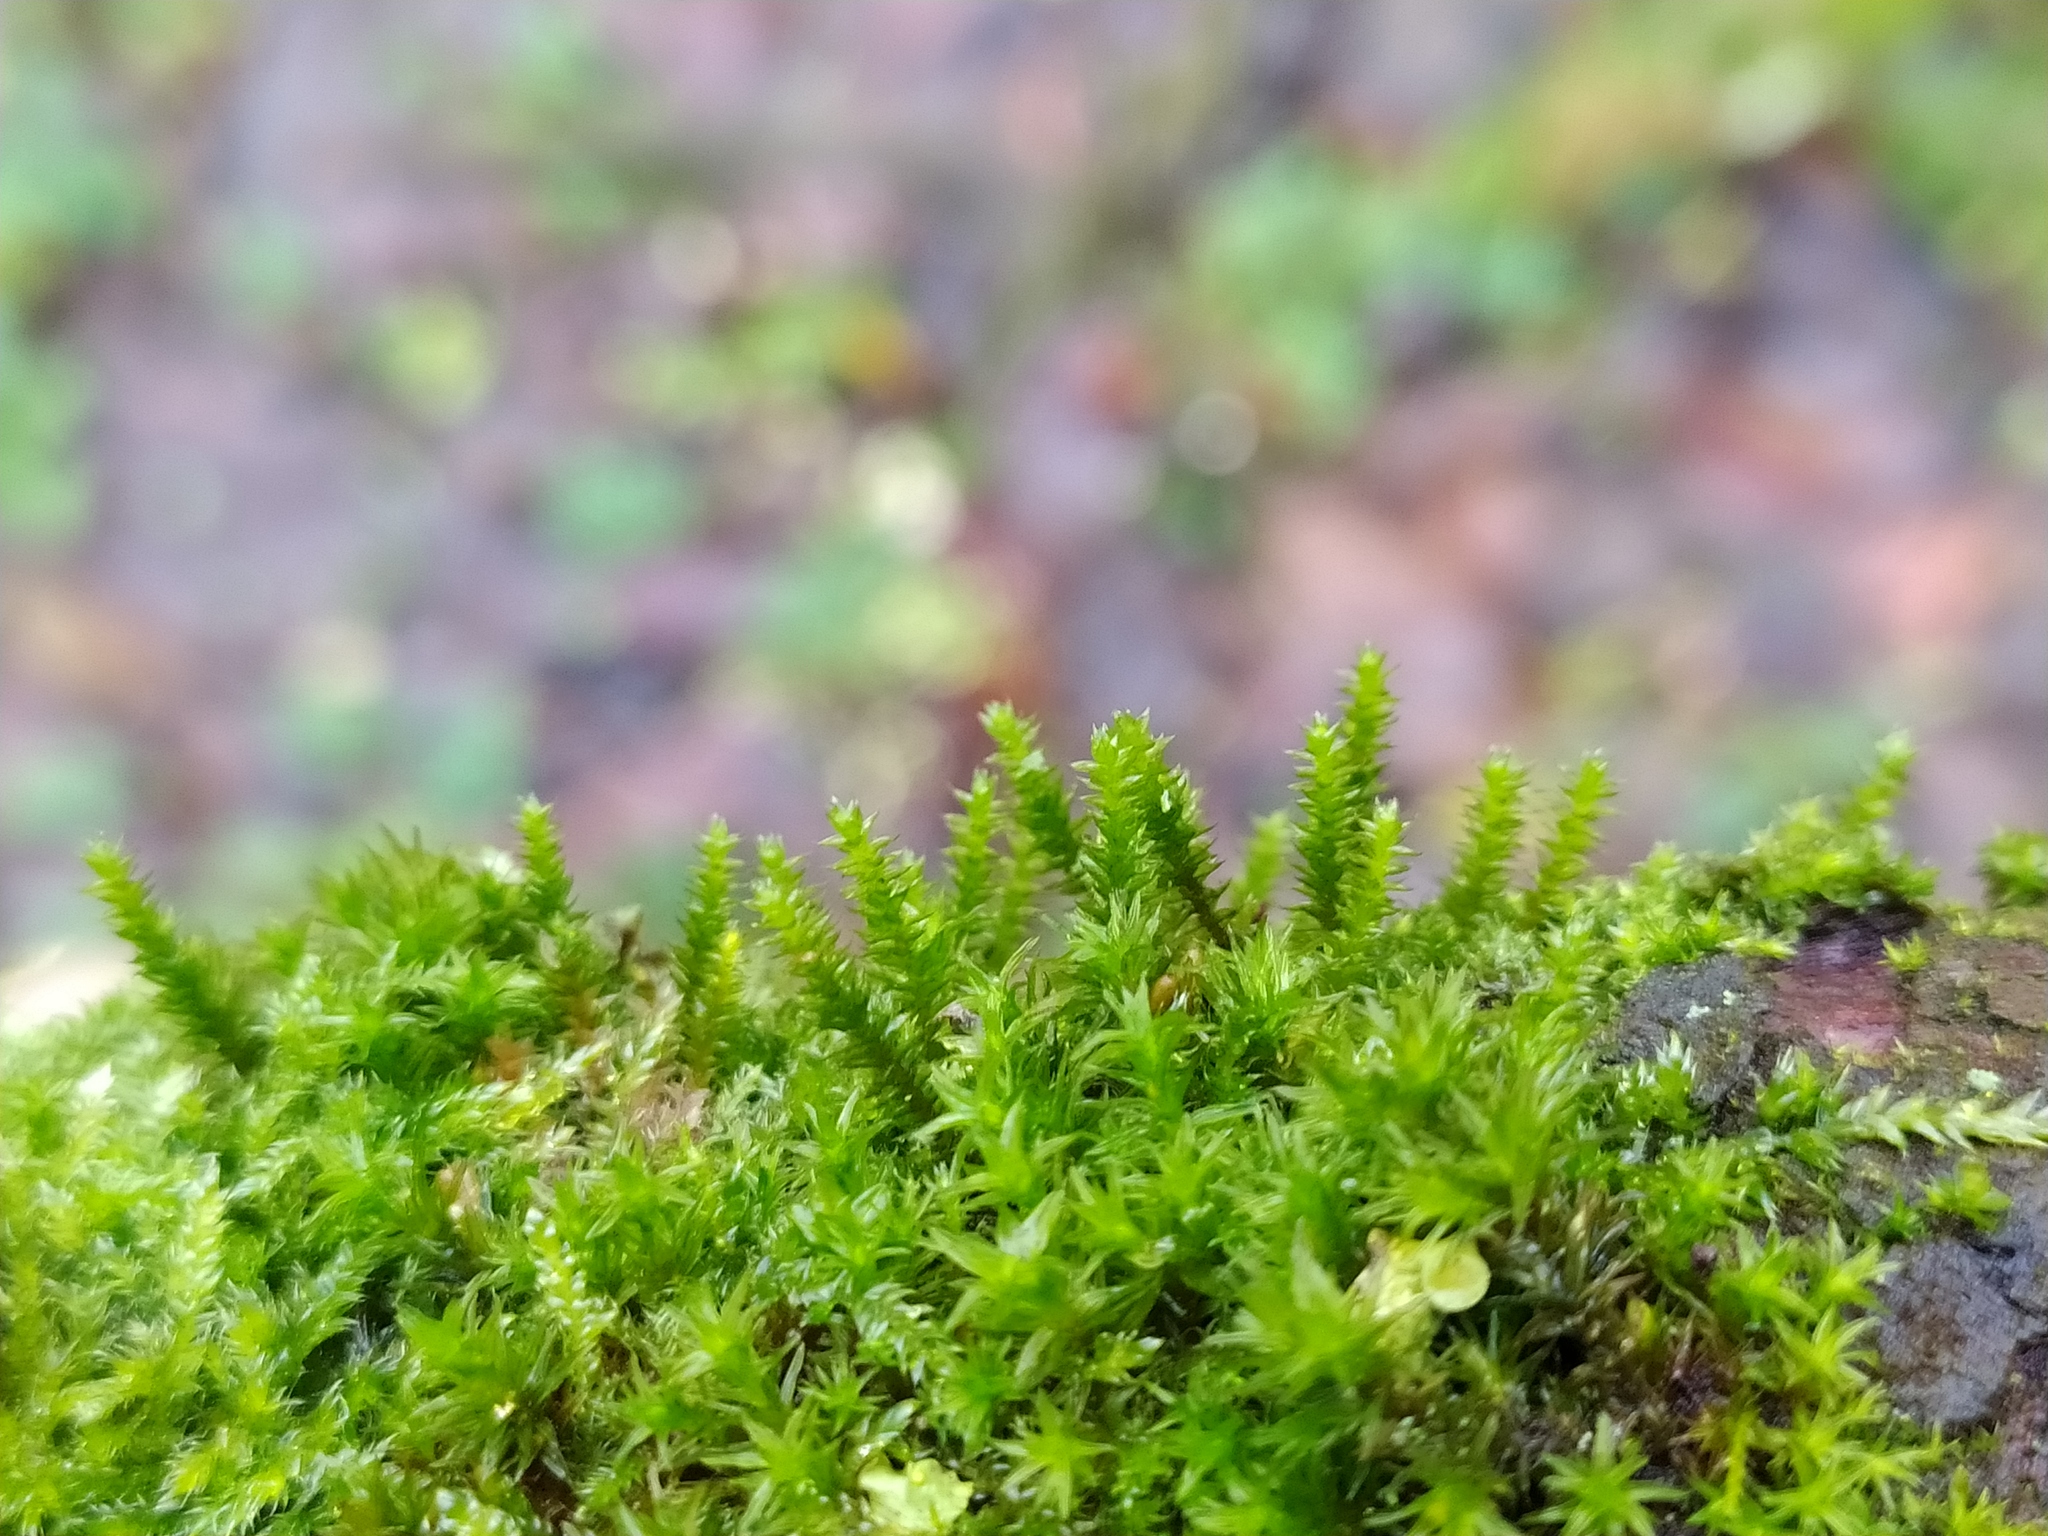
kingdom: Plantae
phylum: Bryophyta
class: Bryopsida
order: Hypnales
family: Cryphaeaceae
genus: Cryphaea
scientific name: Cryphaea heteromalla
